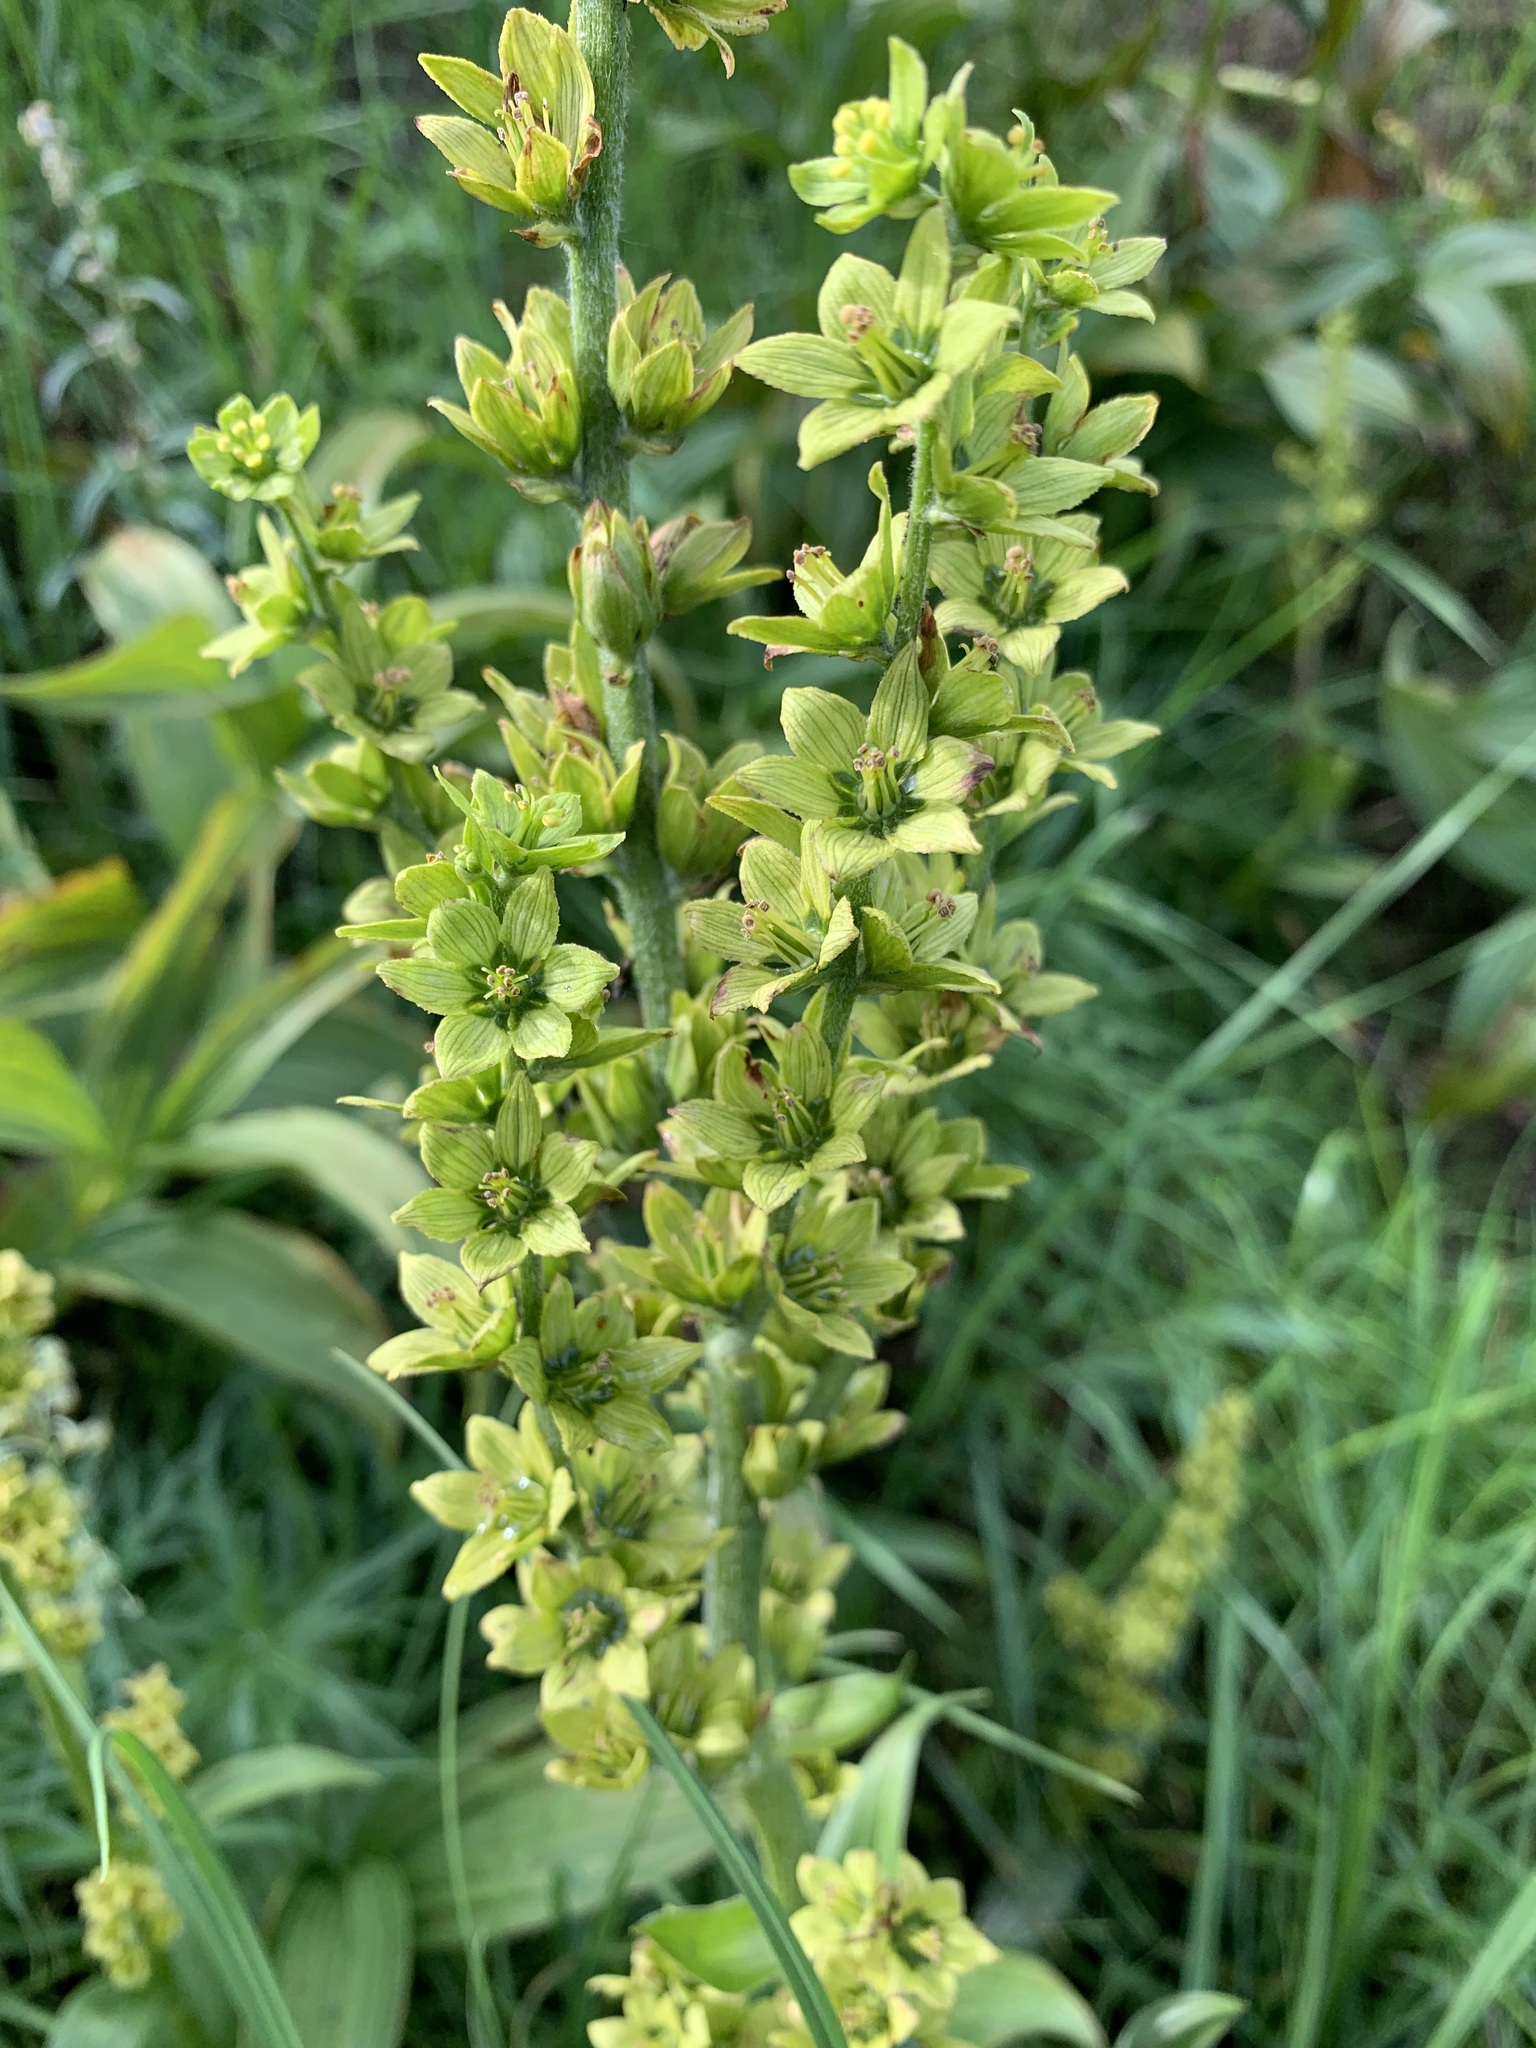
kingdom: Plantae
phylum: Tracheophyta
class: Liliopsida
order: Liliales
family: Melanthiaceae
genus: Veratrum
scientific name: Veratrum lobelianum
